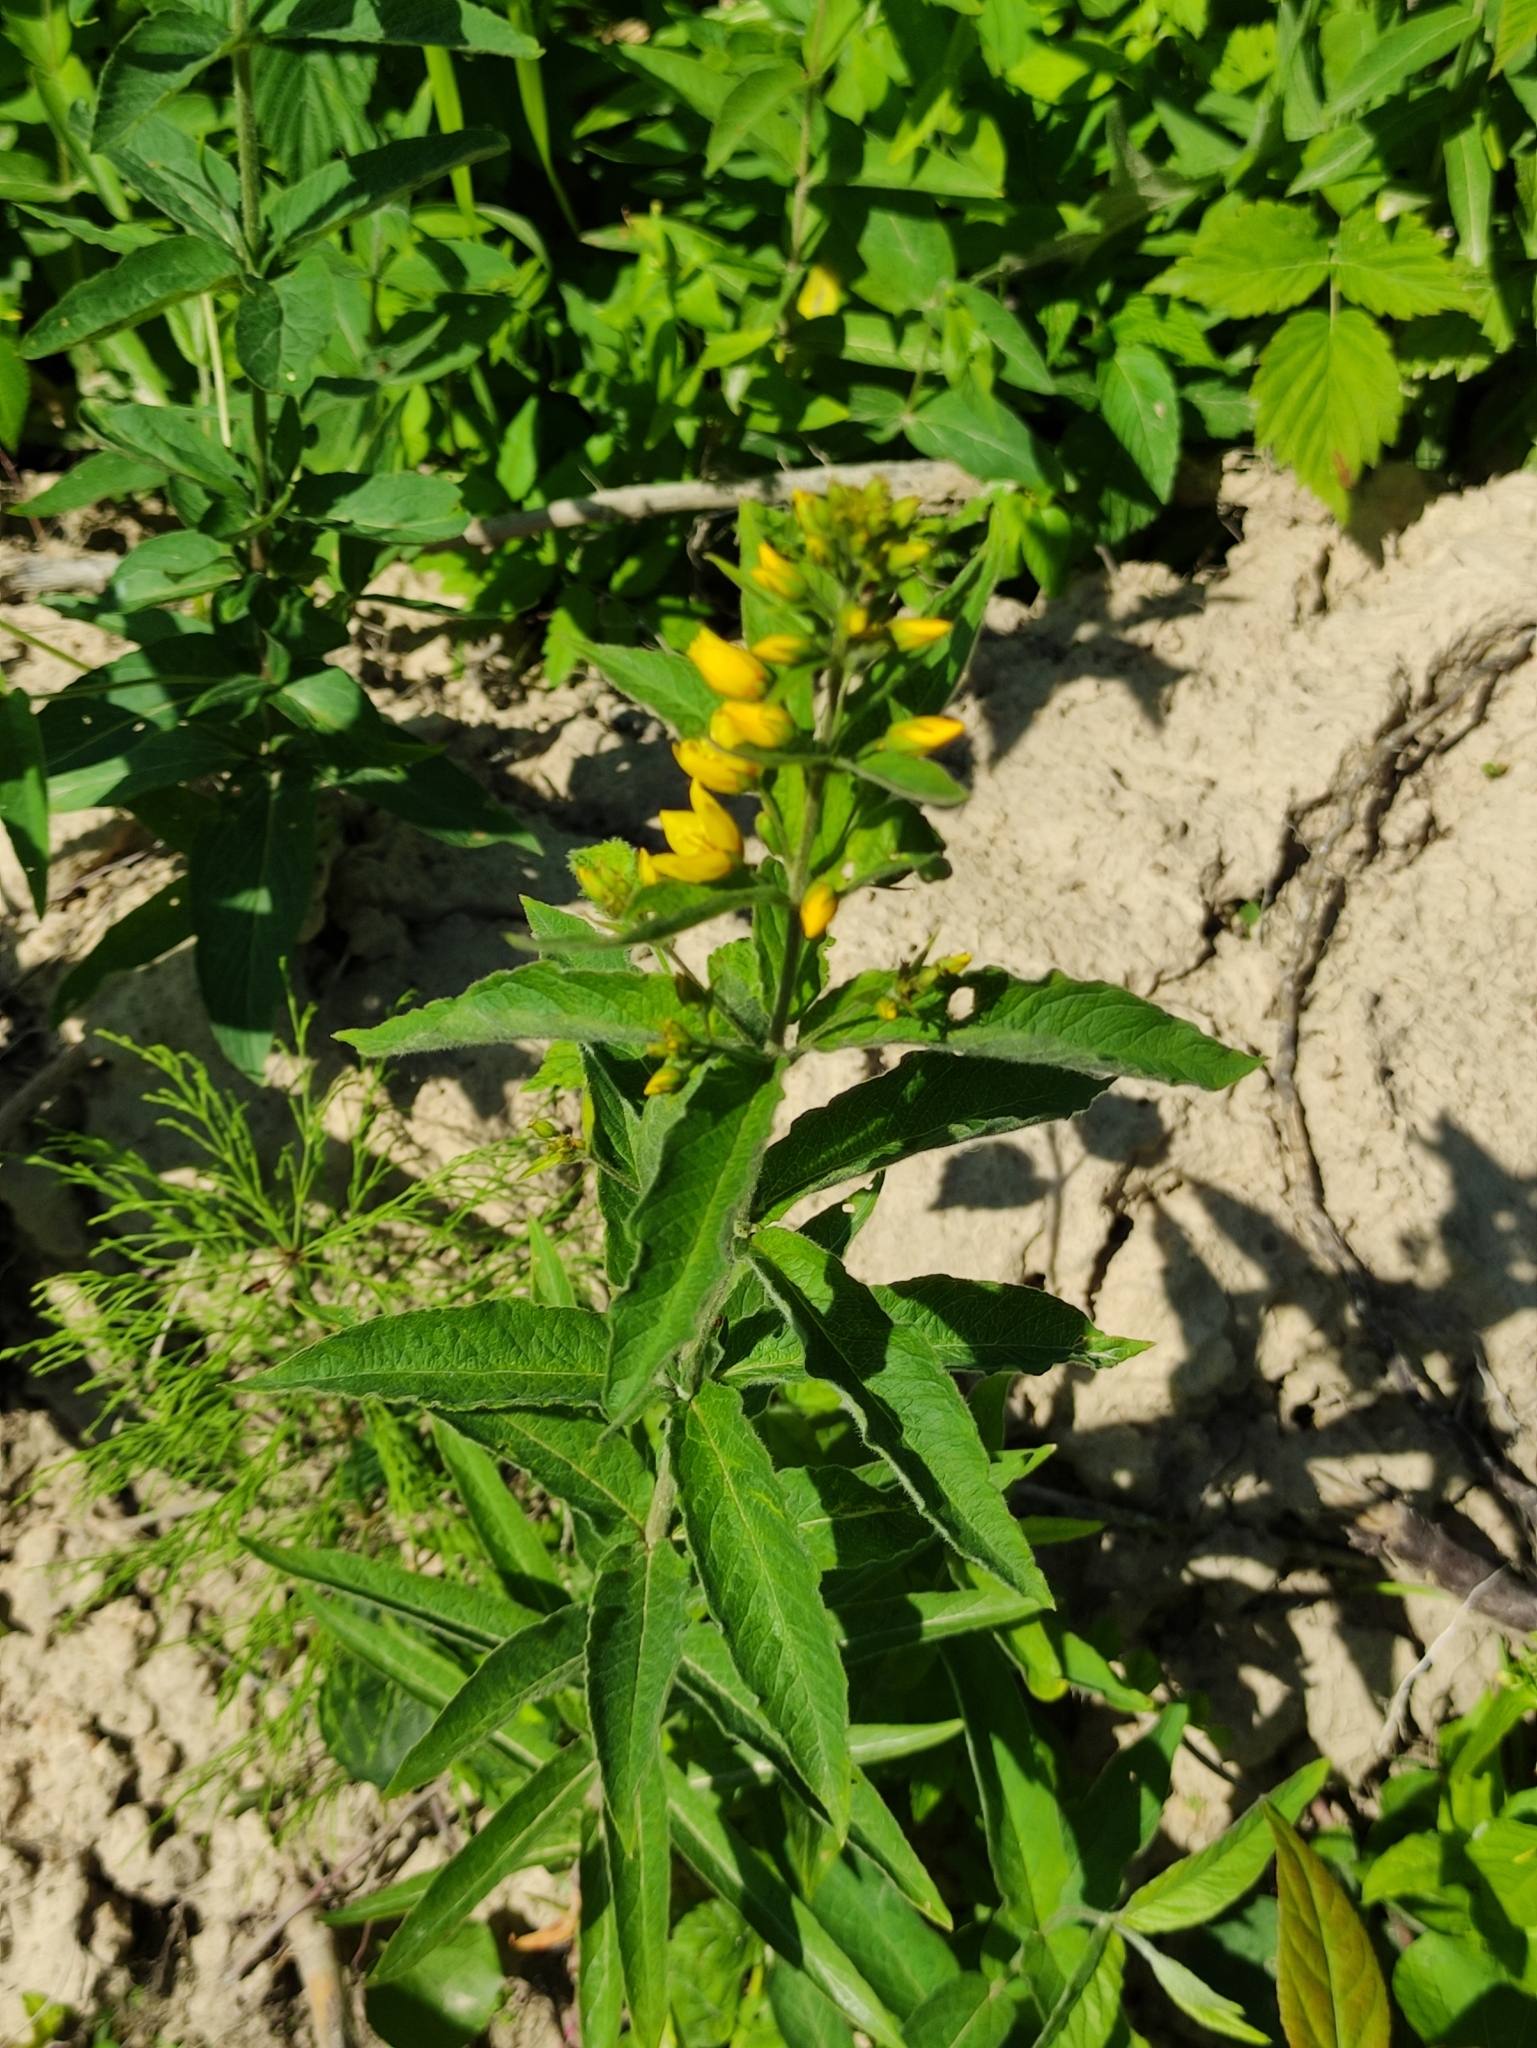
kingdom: Plantae
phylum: Tracheophyta
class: Magnoliopsida
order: Ericales
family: Primulaceae
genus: Lysimachia
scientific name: Lysimachia vulgaris
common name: Yellow loosestrife
